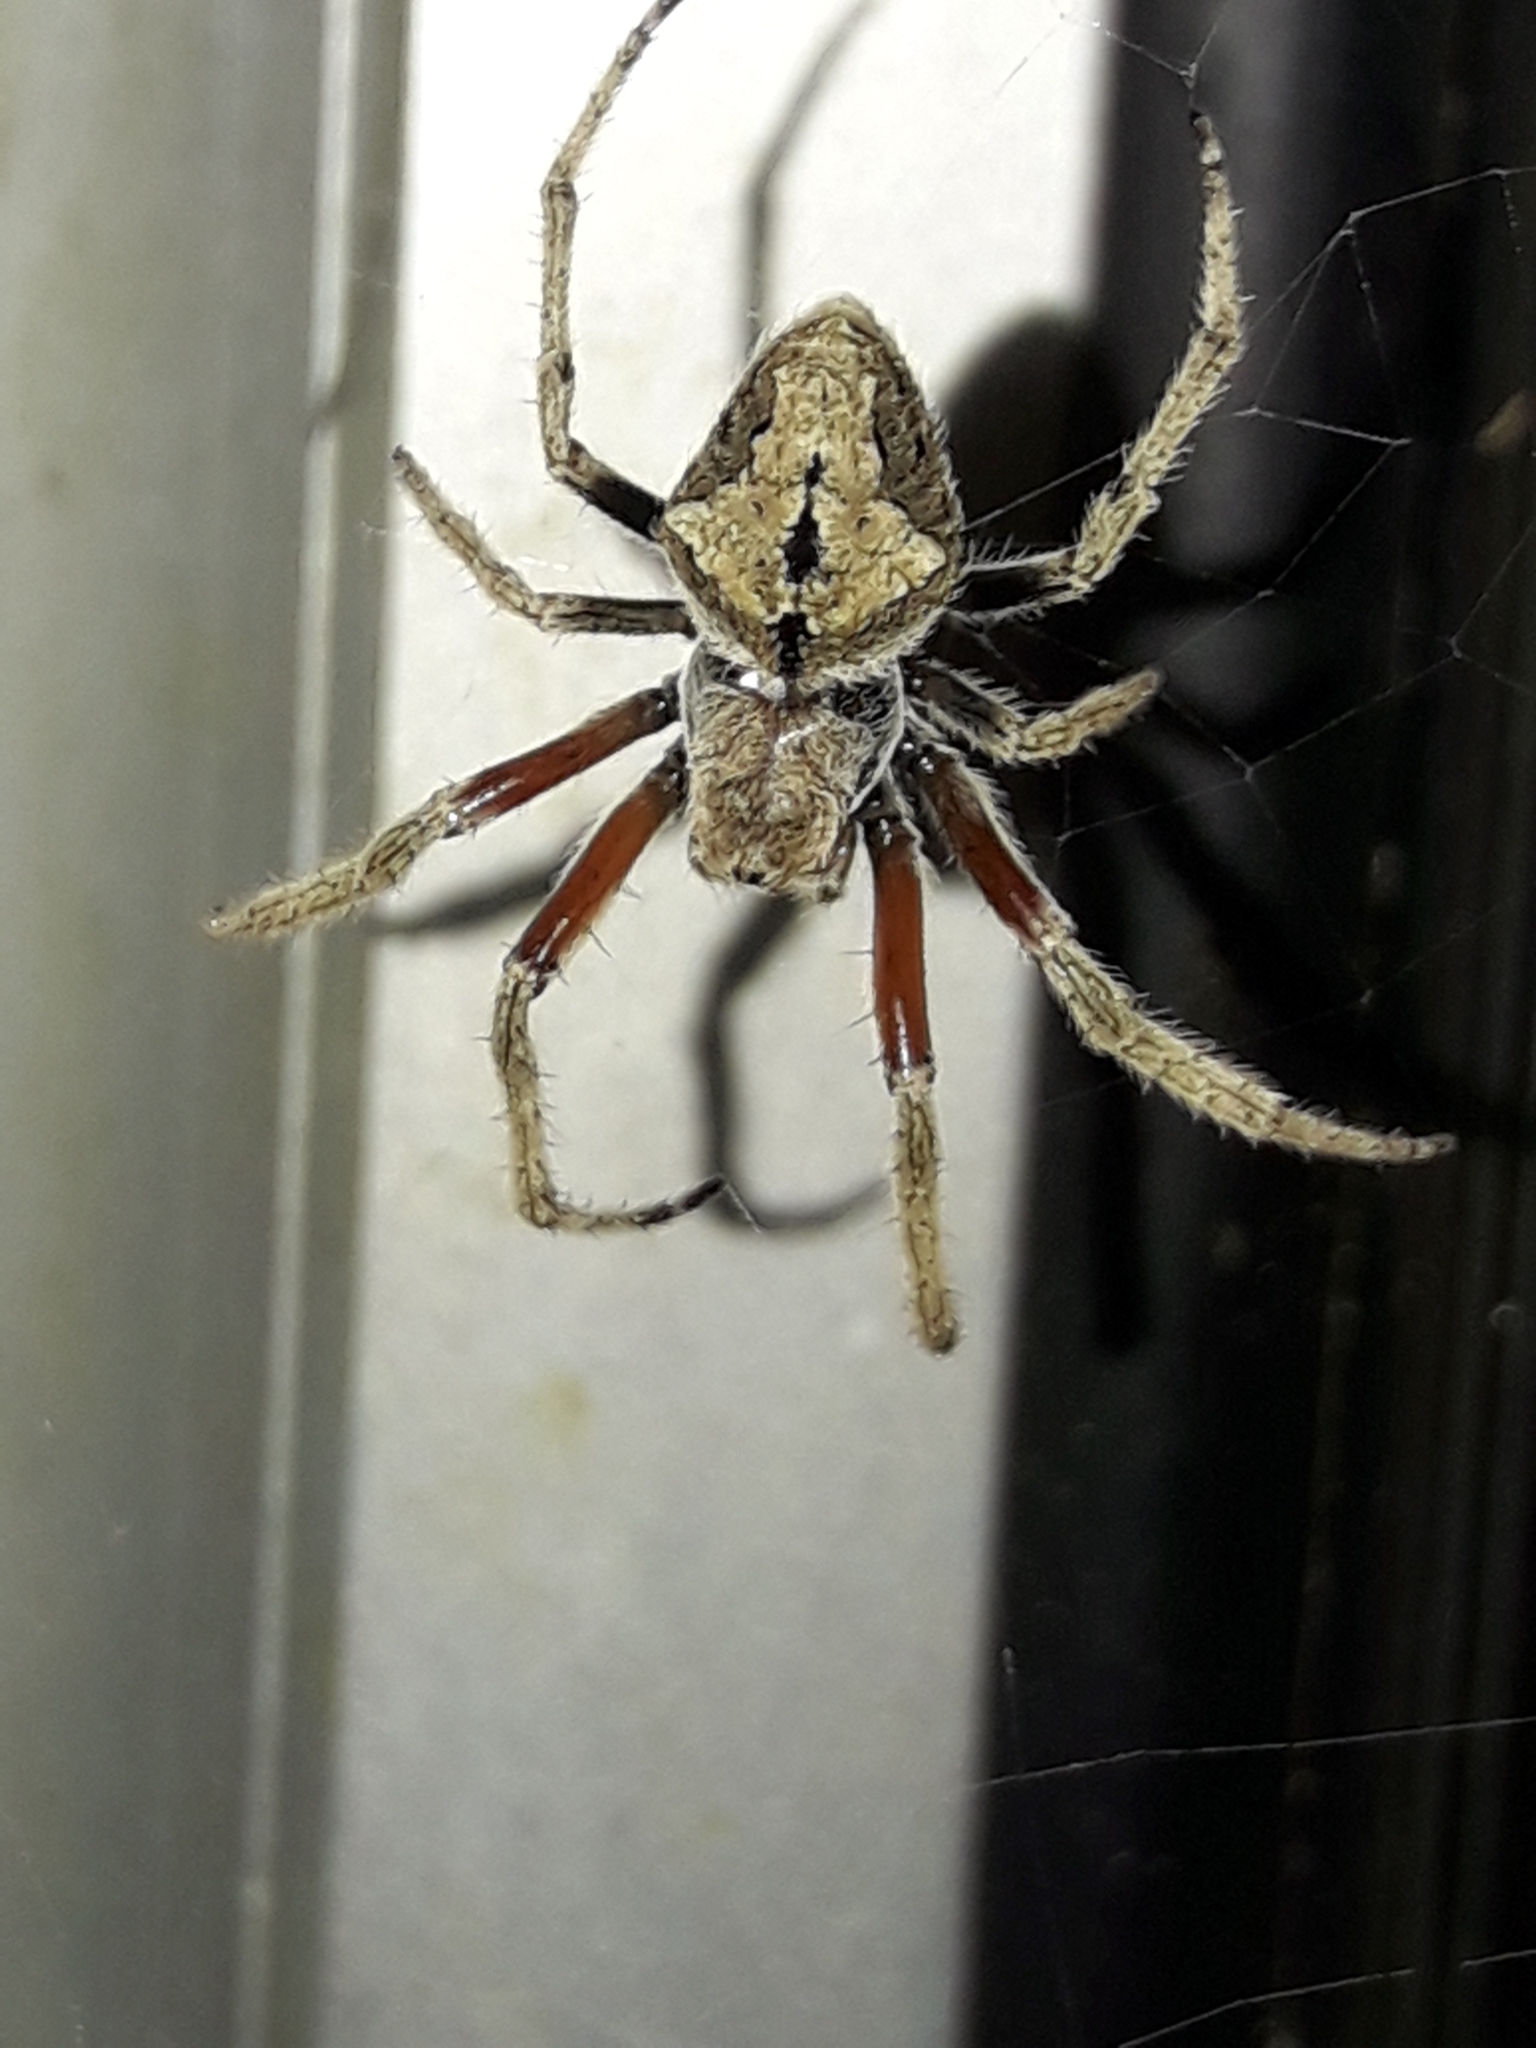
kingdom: Animalia
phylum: Arthropoda
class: Arachnida
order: Araneae
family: Araneidae
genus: Eriophora
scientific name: Eriophora pustulosa
